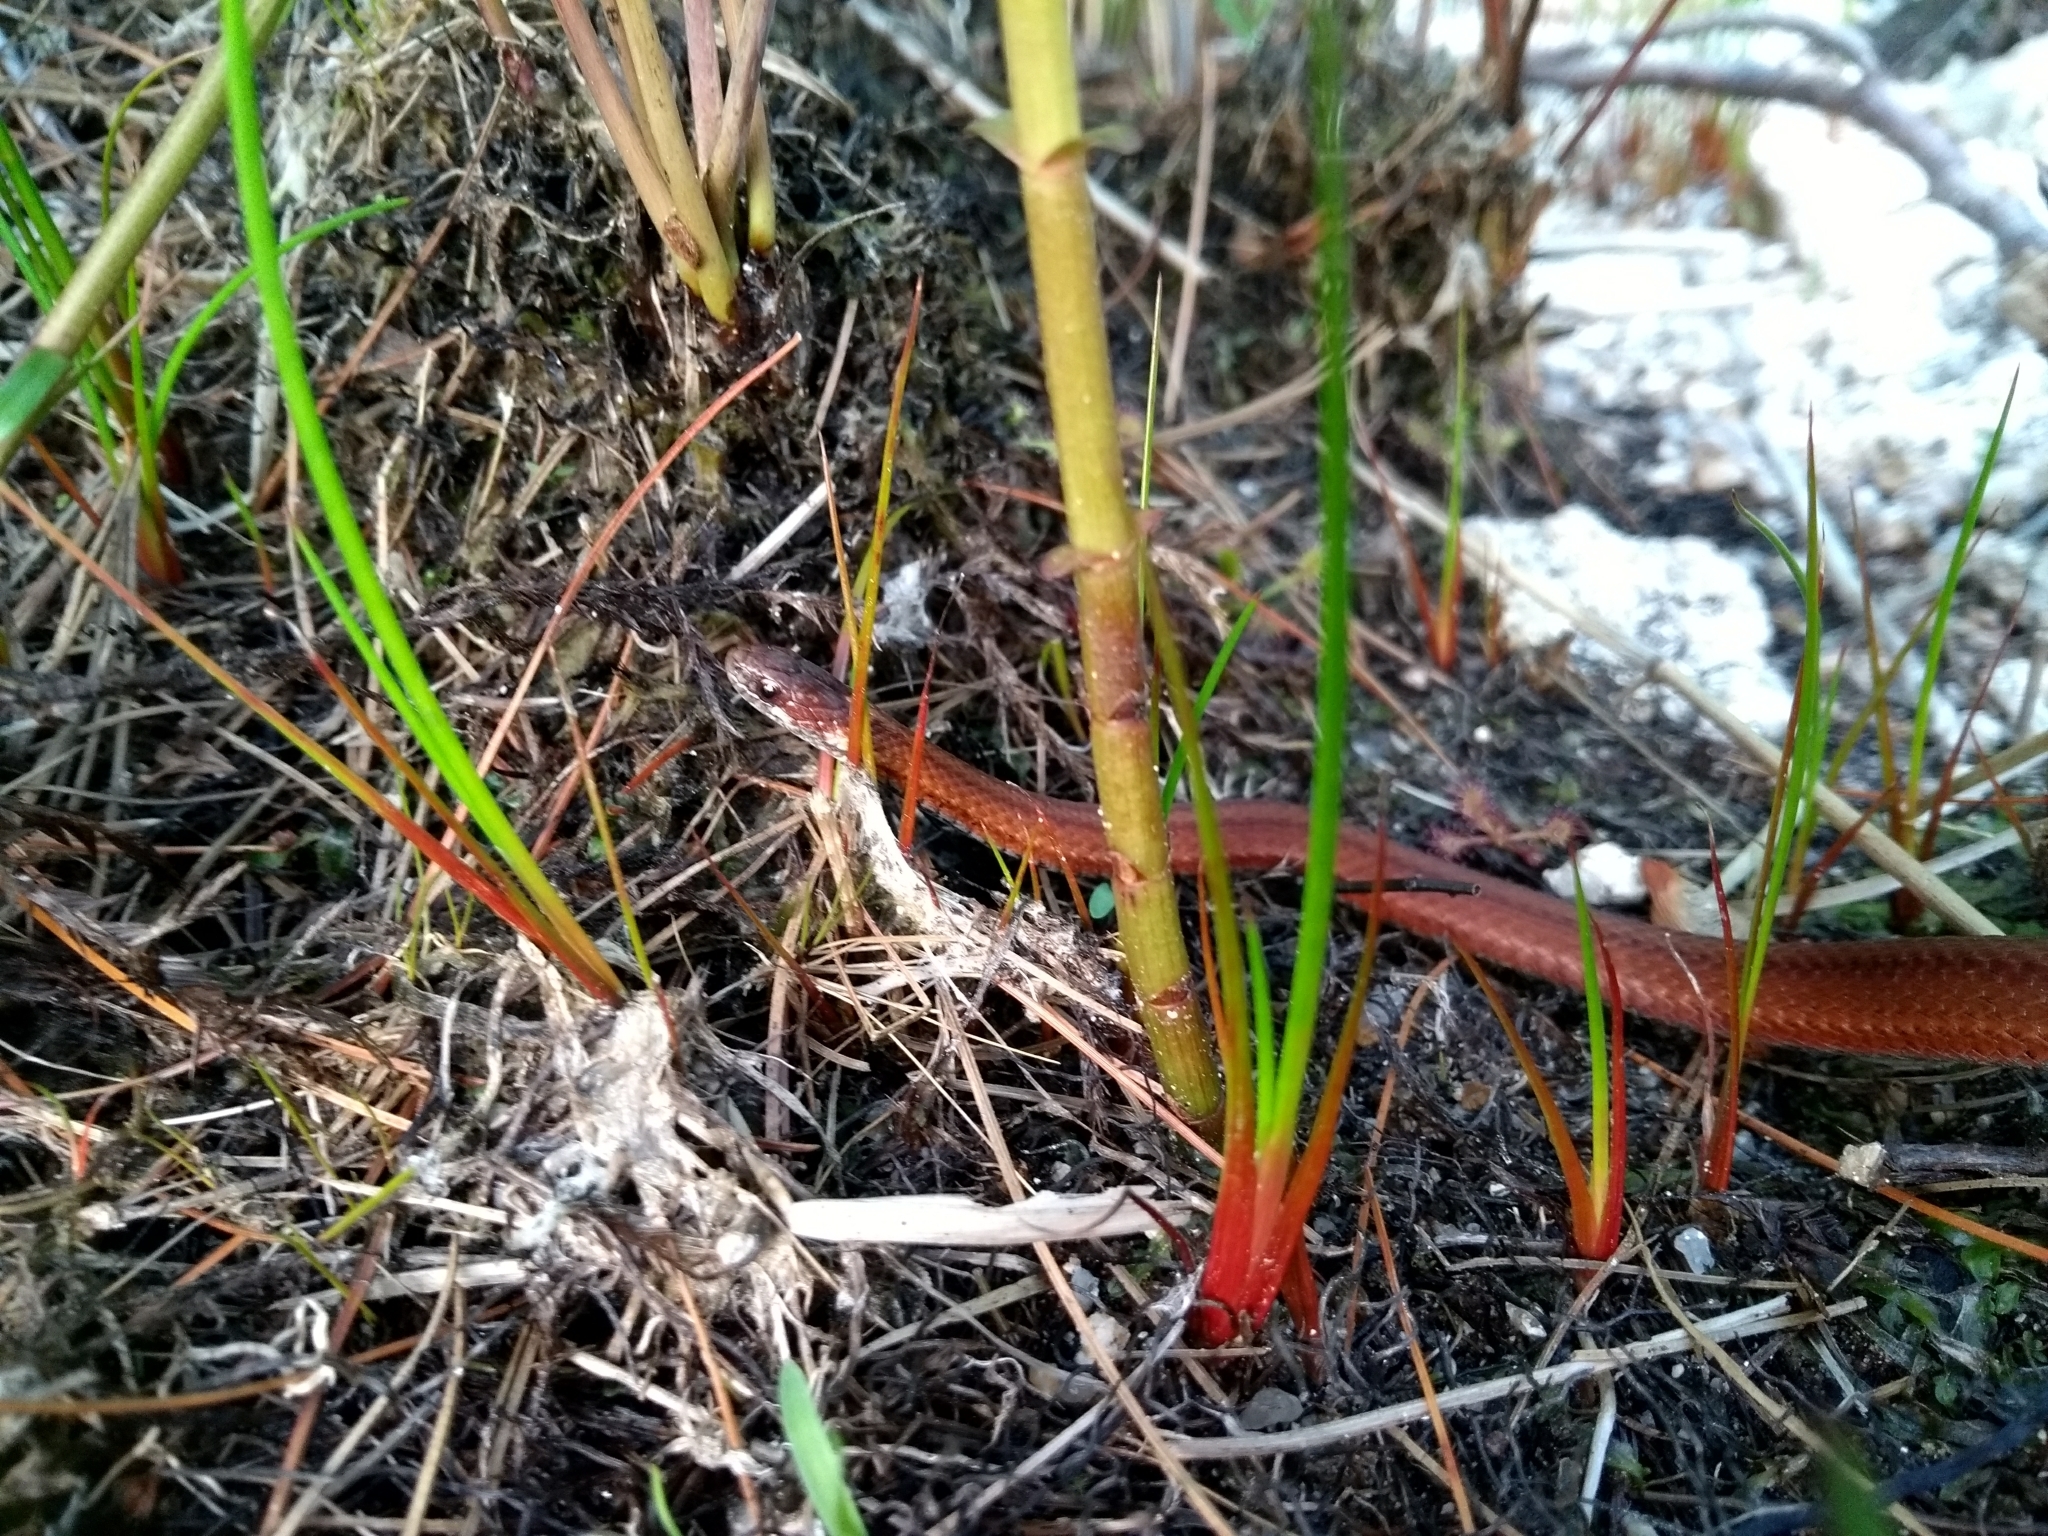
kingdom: Animalia
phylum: Chordata
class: Squamata
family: Colubridae
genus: Storeria
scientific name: Storeria occipitomaculata
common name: Redbelly snake
